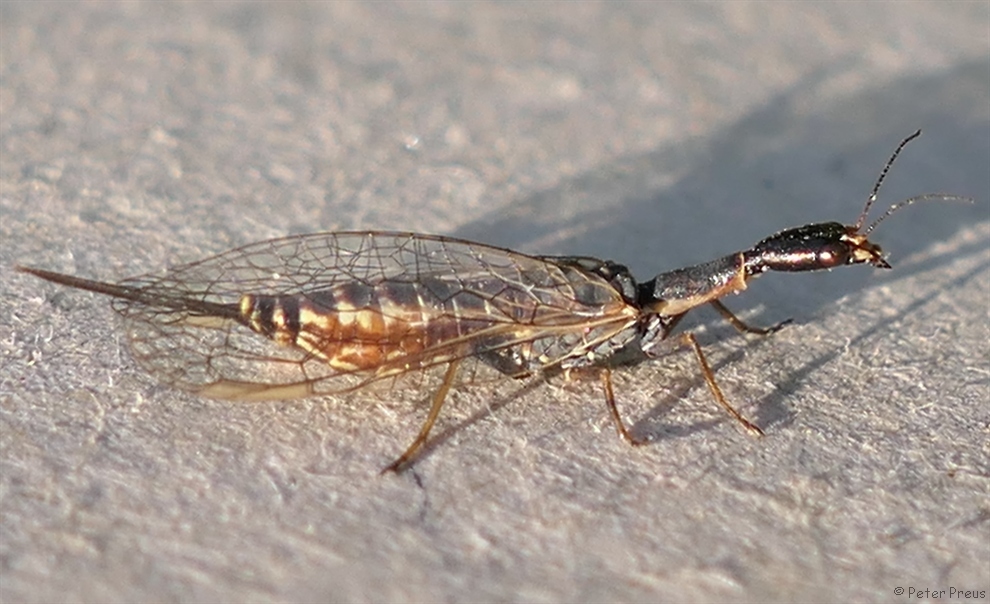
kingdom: Animalia
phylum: Arthropoda
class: Insecta
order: Raphidioptera
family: Raphidiidae
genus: Xanthostigma
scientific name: Xanthostigma xanthostigma
